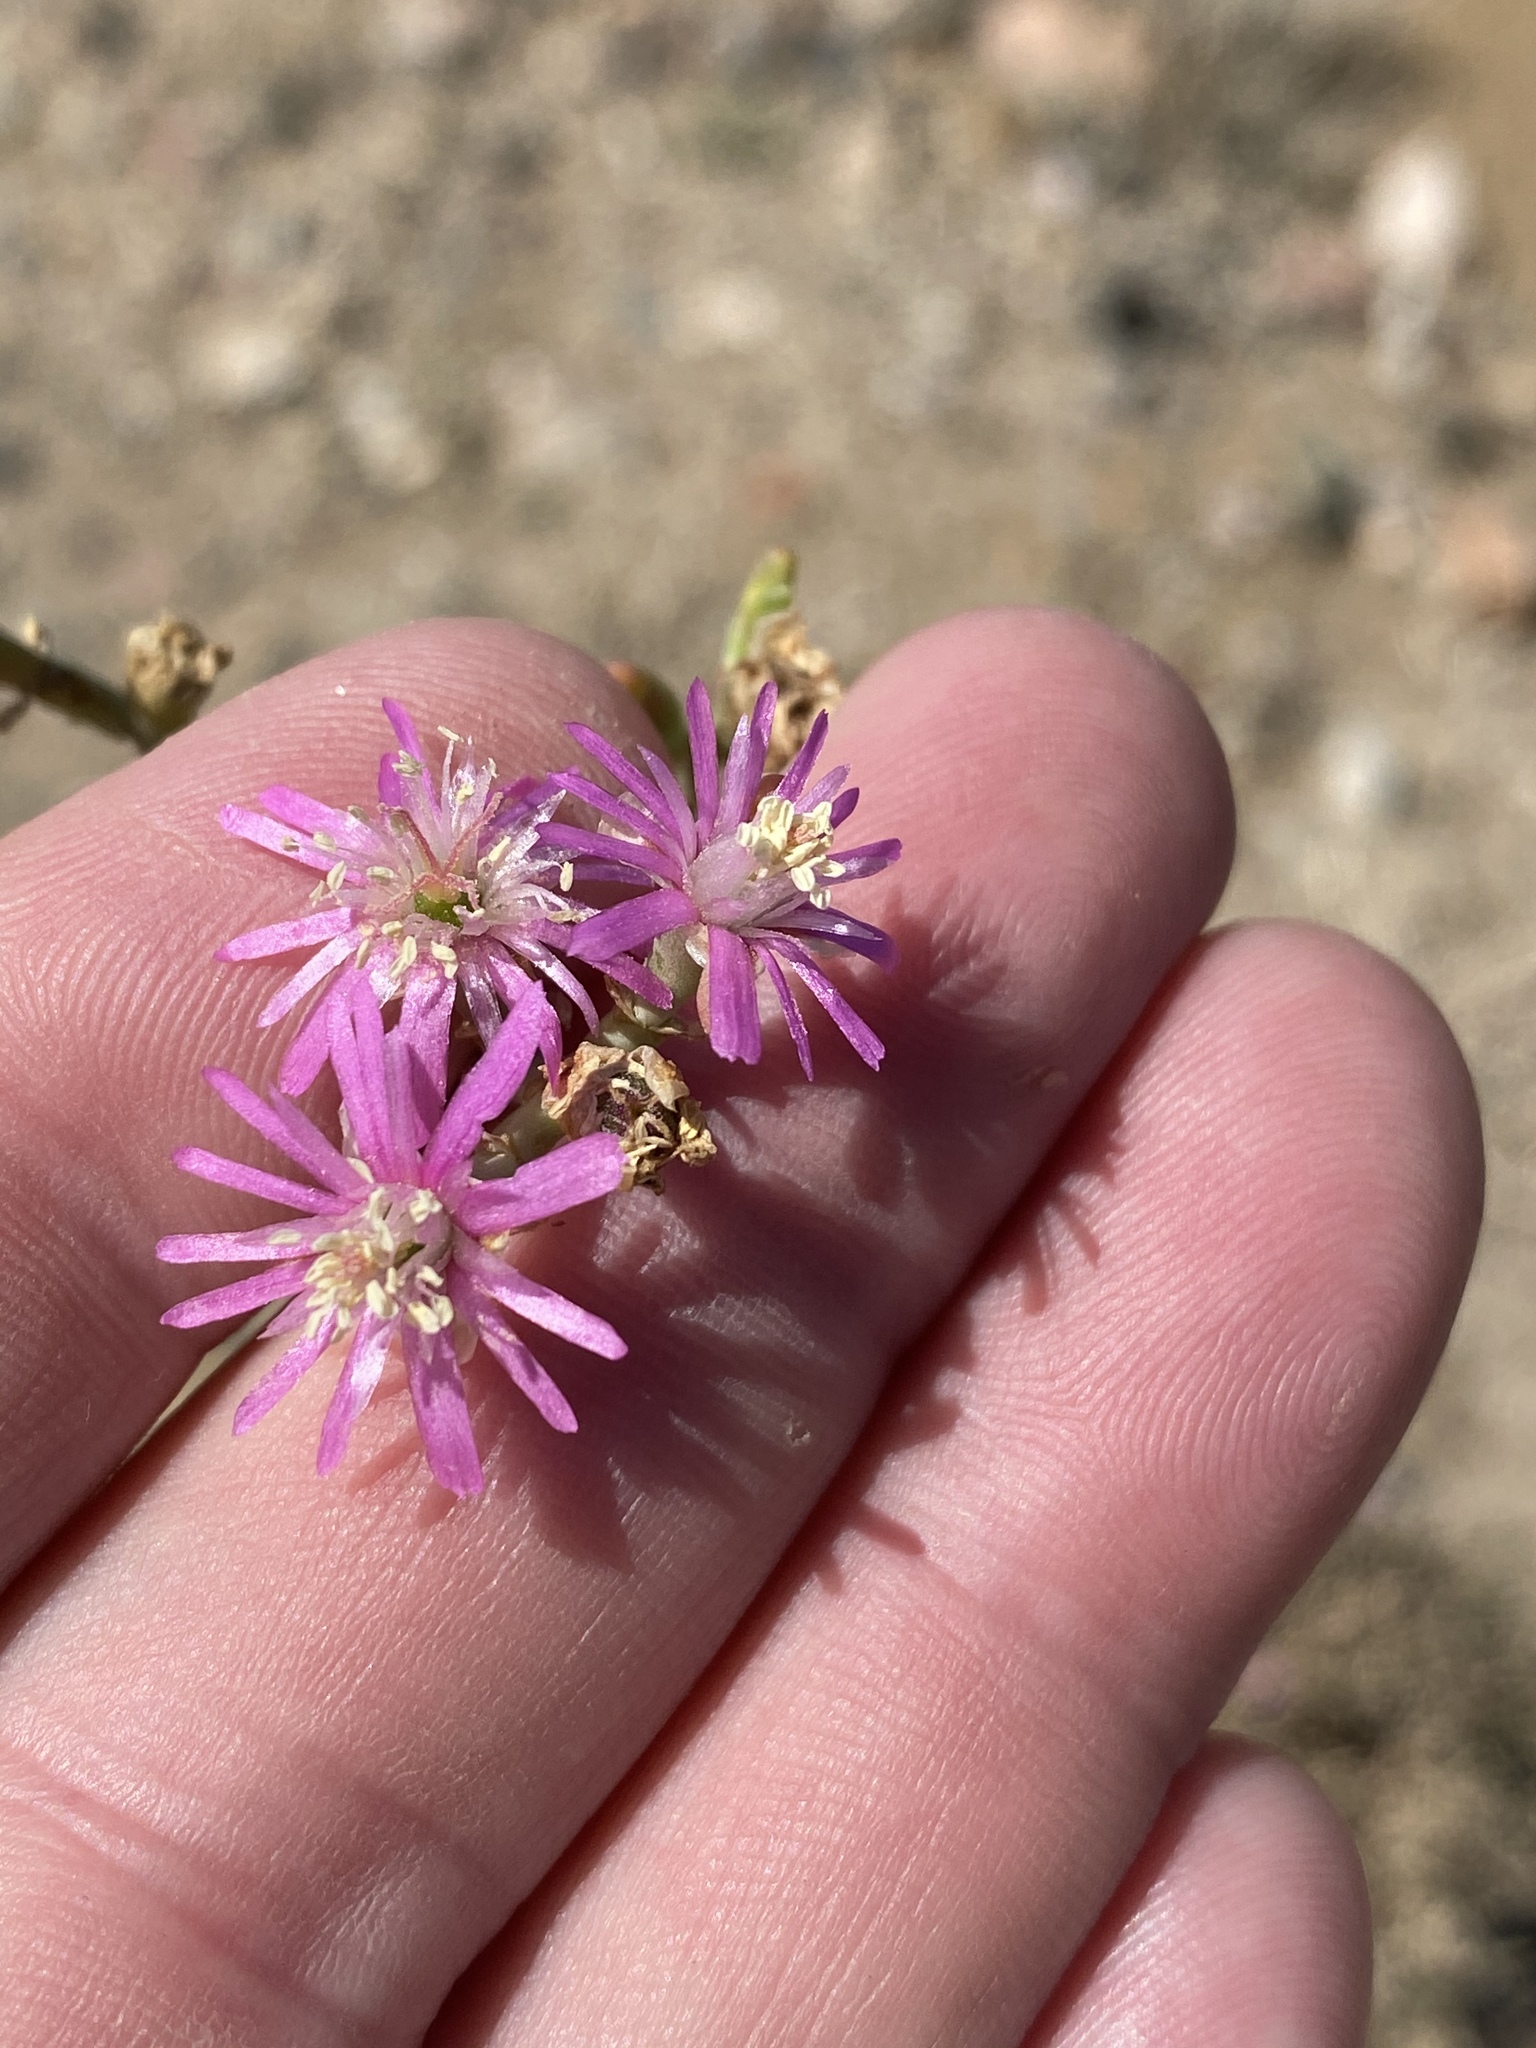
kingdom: Plantae
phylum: Tracheophyta
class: Magnoliopsida
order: Caryophyllales
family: Aizoaceae
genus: Mesembryanthemum
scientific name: Mesembryanthemum junceum
